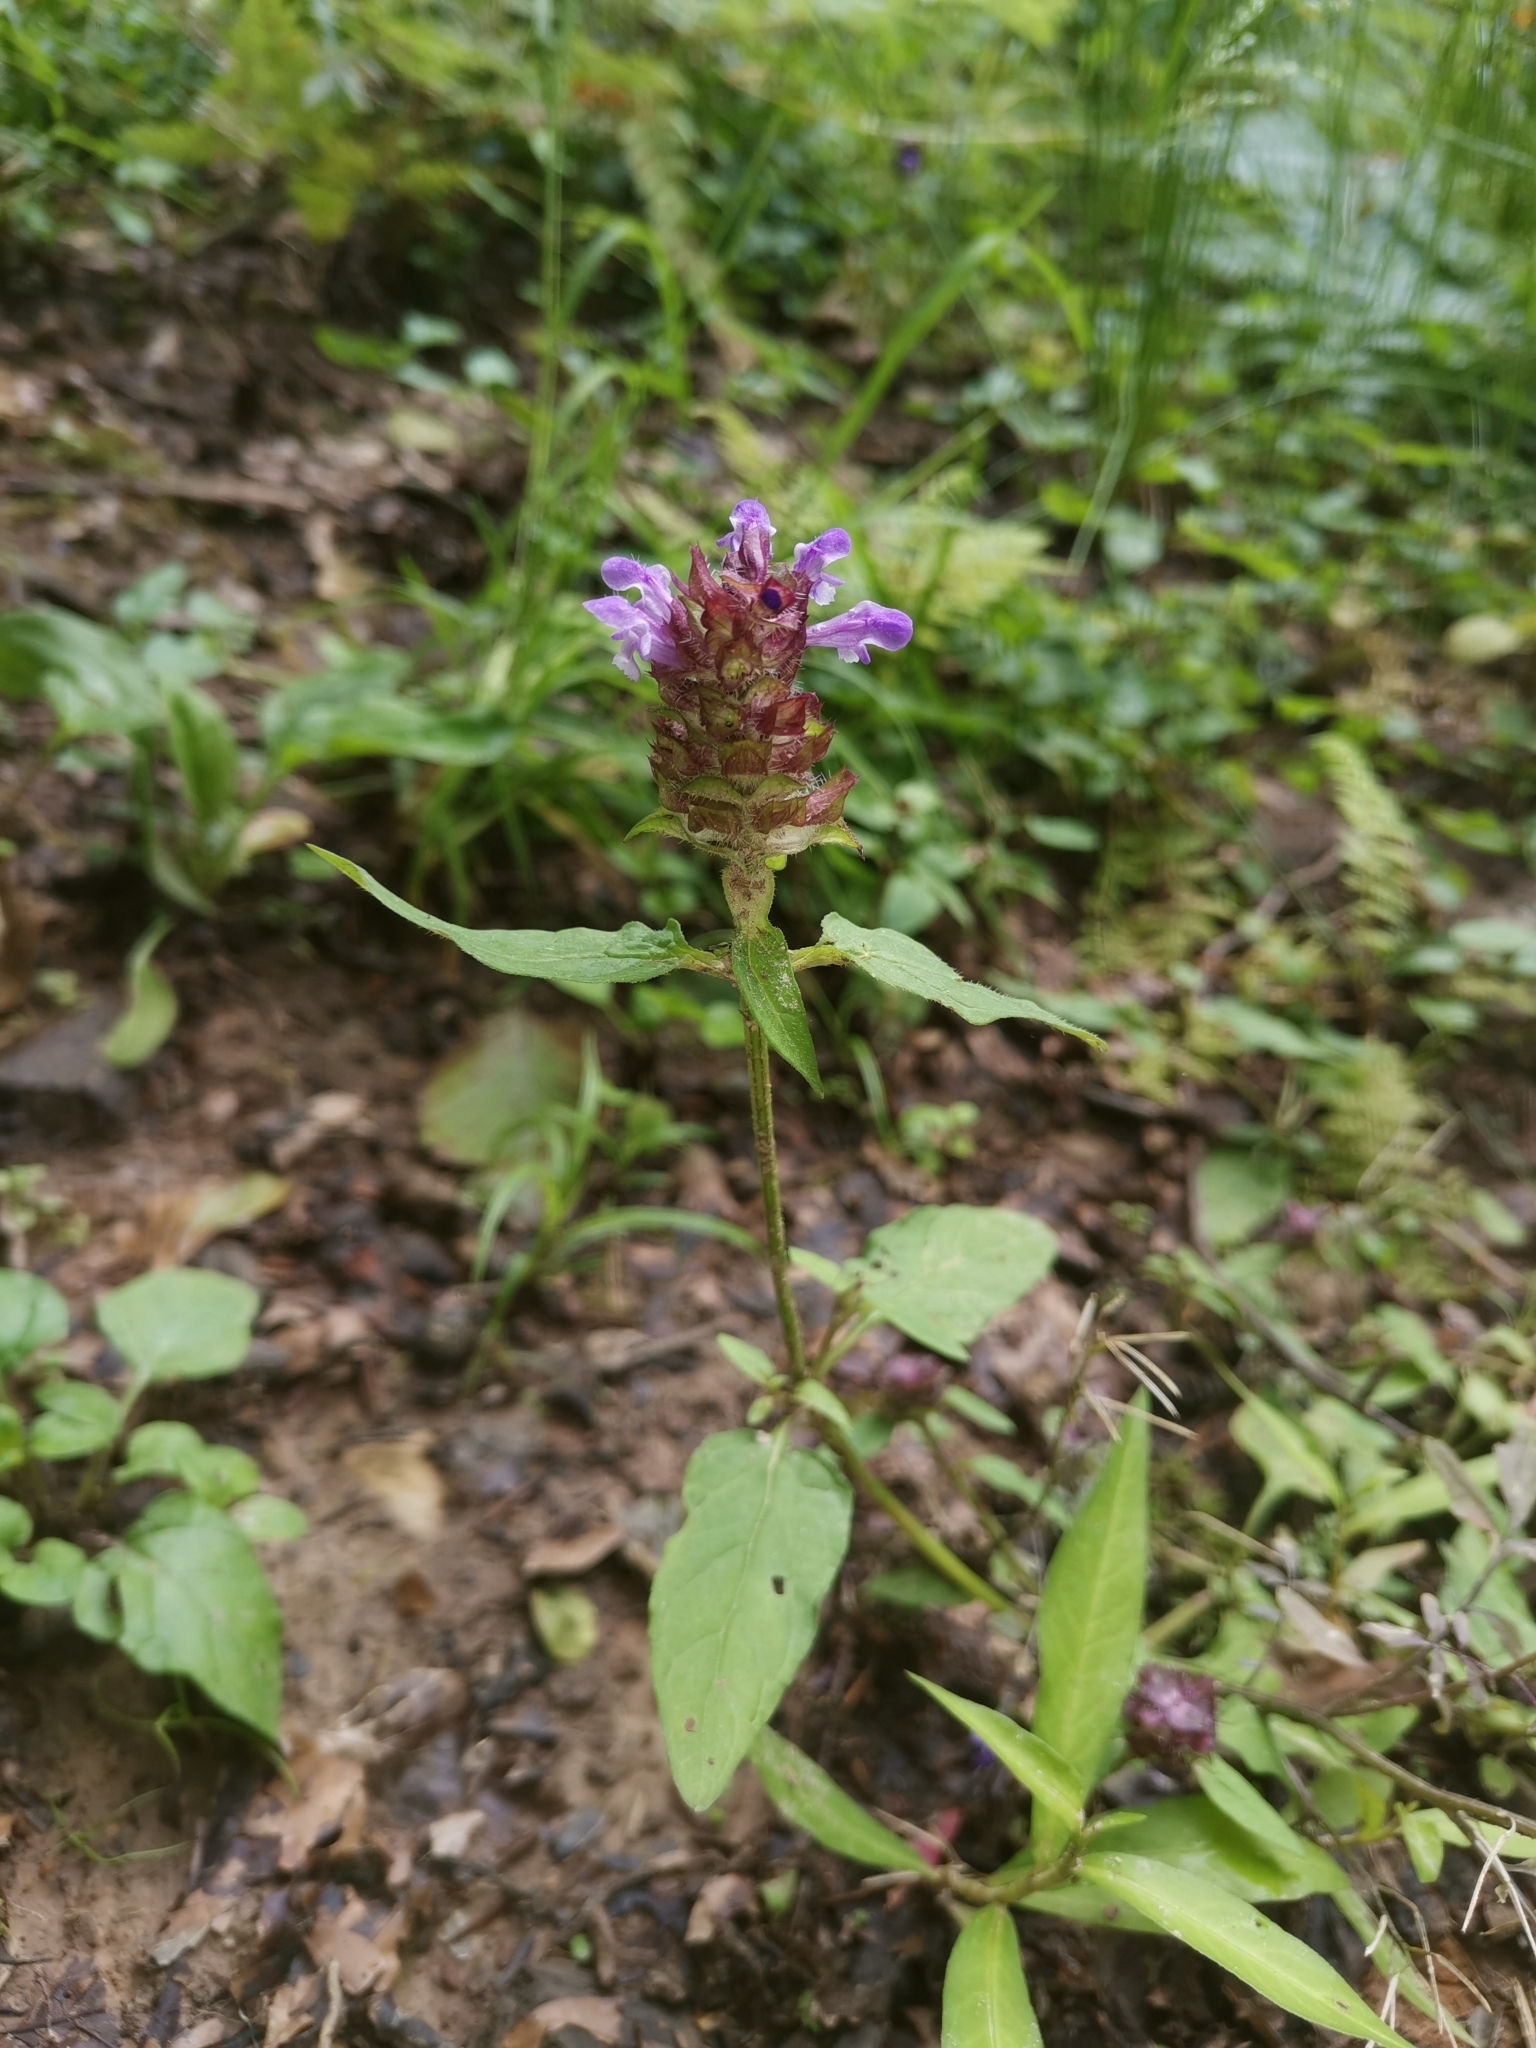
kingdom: Plantae
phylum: Tracheophyta
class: Magnoliopsida
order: Lamiales
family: Lamiaceae
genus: Prunella
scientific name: Prunella vulgaris
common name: Heal-all
